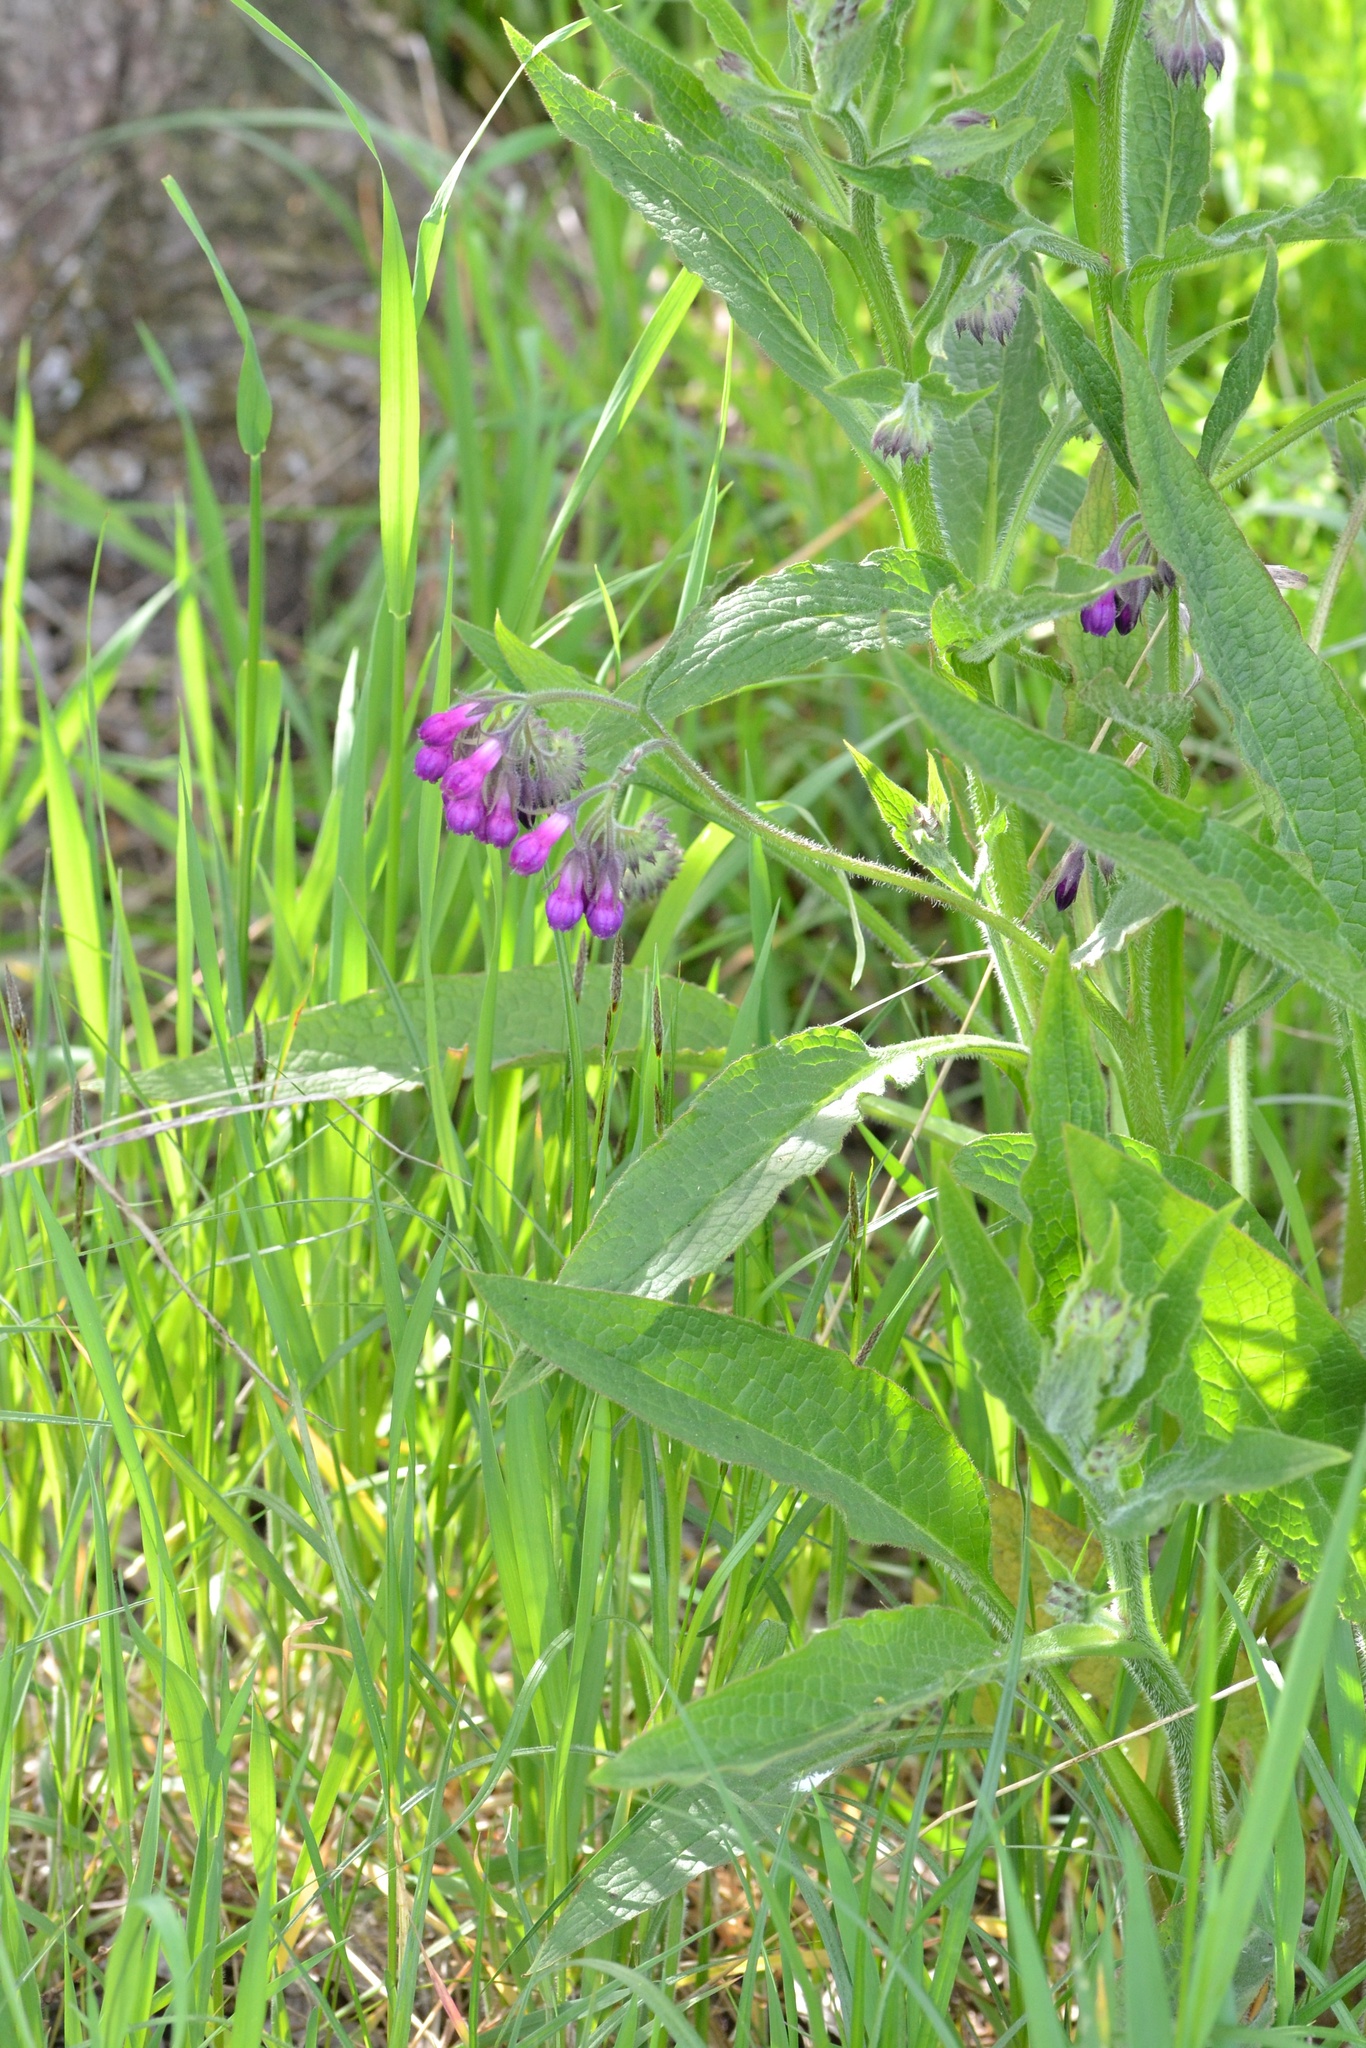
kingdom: Plantae
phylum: Tracheophyta
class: Magnoliopsida
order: Boraginales
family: Boraginaceae
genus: Symphytum
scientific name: Symphytum officinale
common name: Common comfrey
